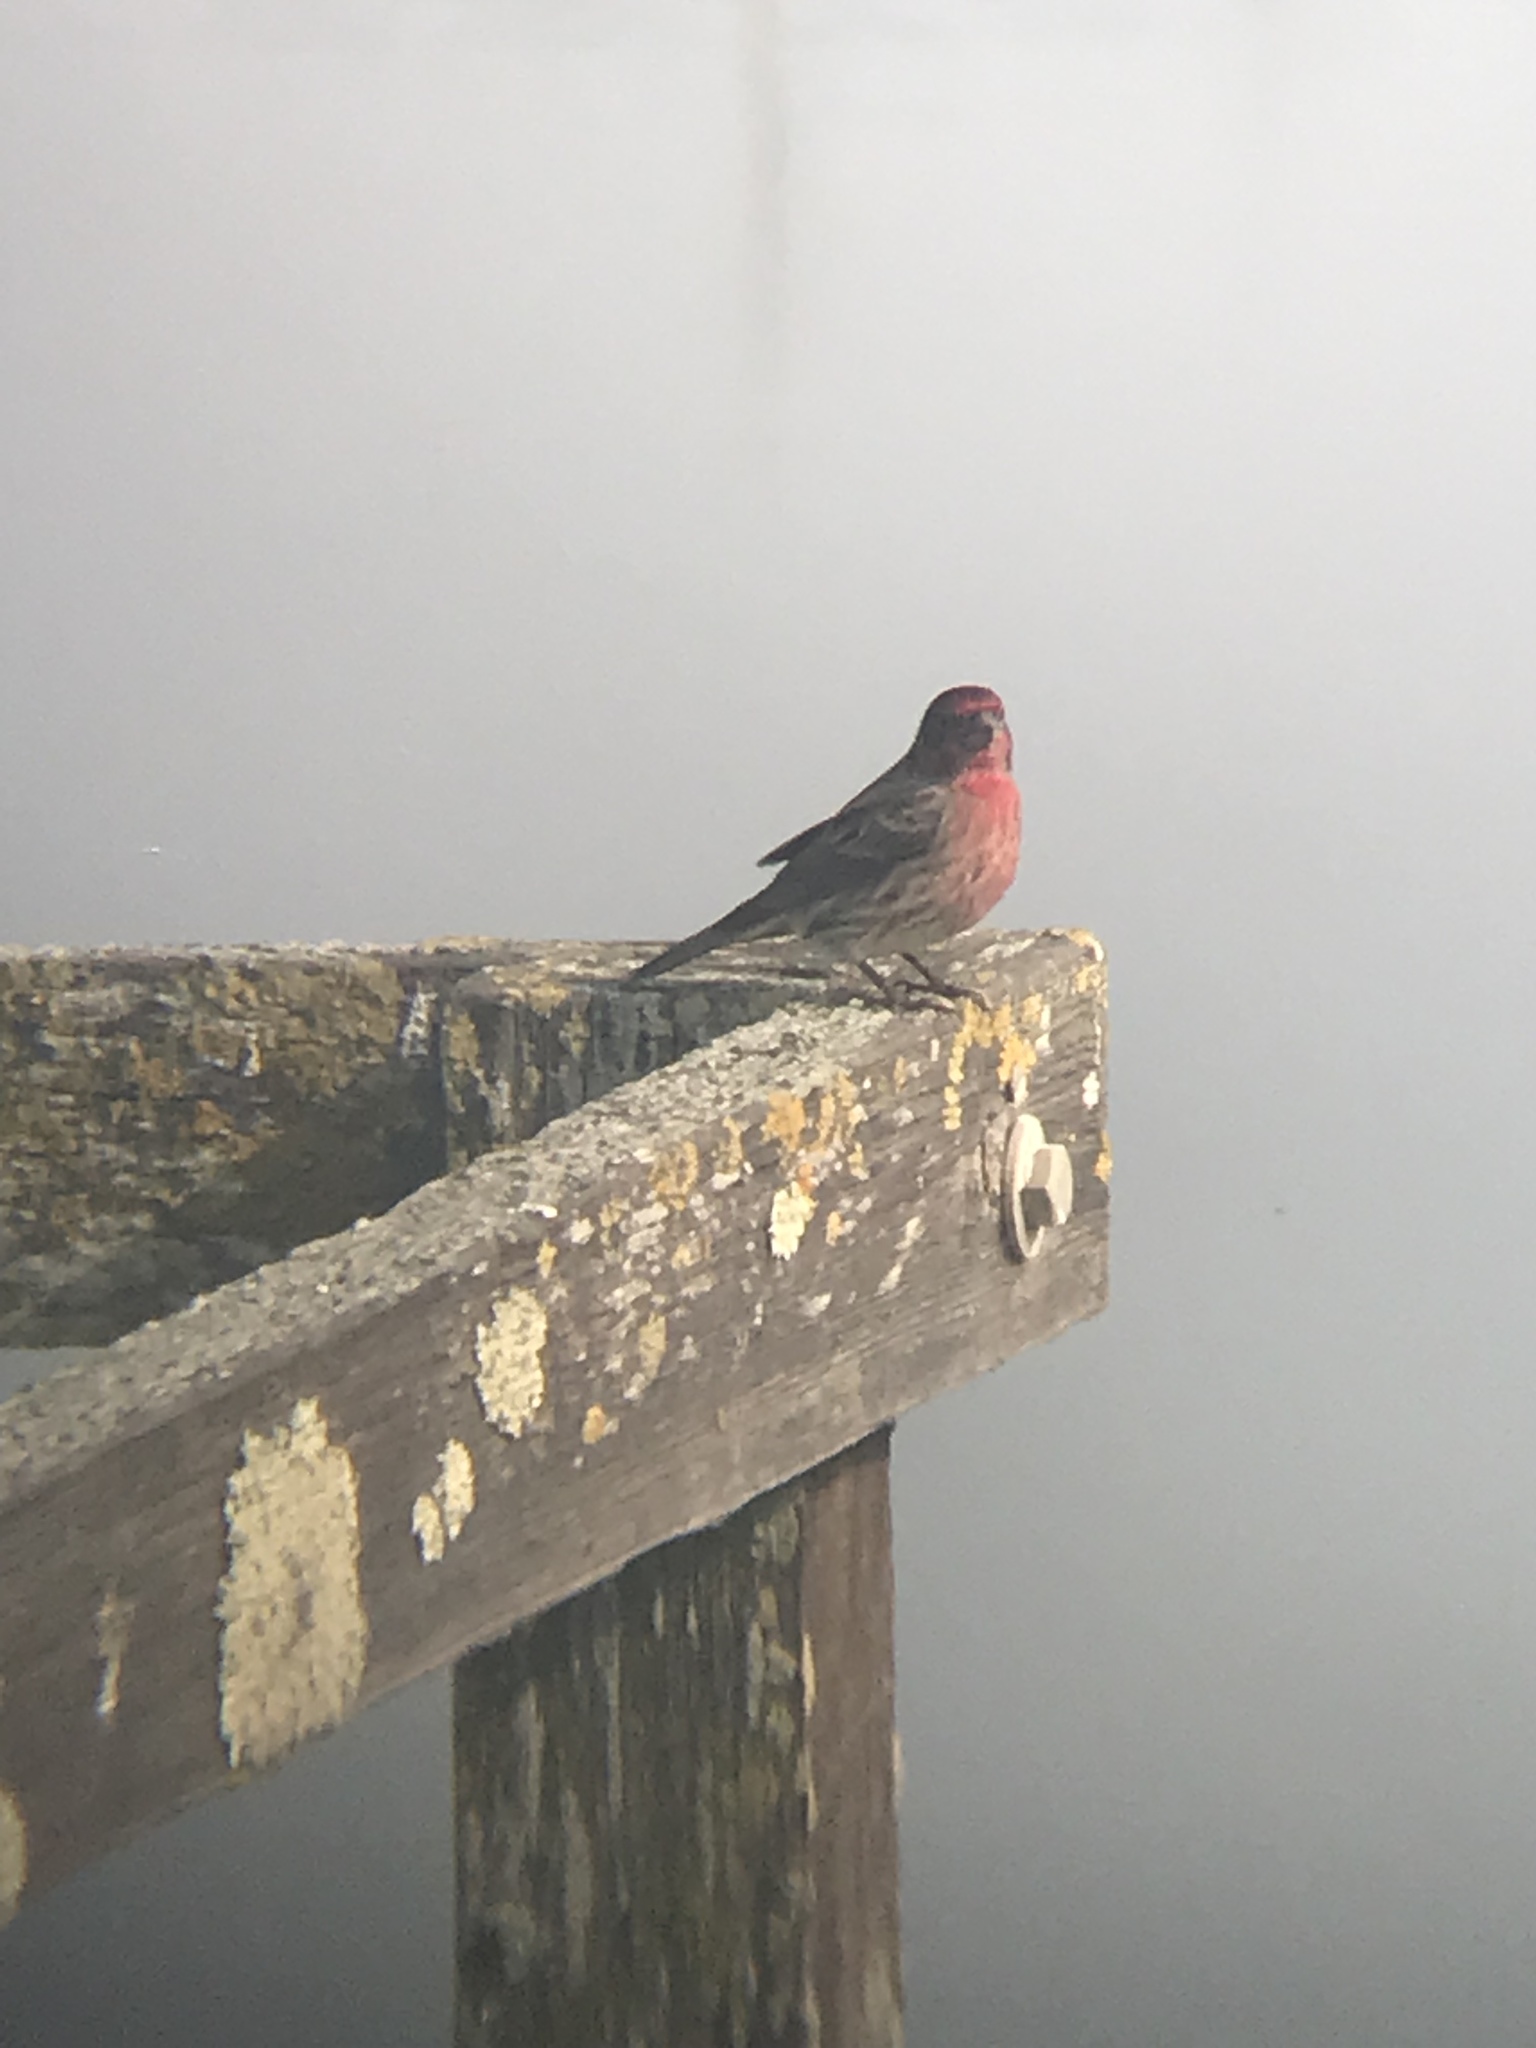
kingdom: Animalia
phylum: Chordata
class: Aves
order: Passeriformes
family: Fringillidae
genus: Haemorhous
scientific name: Haemorhous mexicanus
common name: House finch
